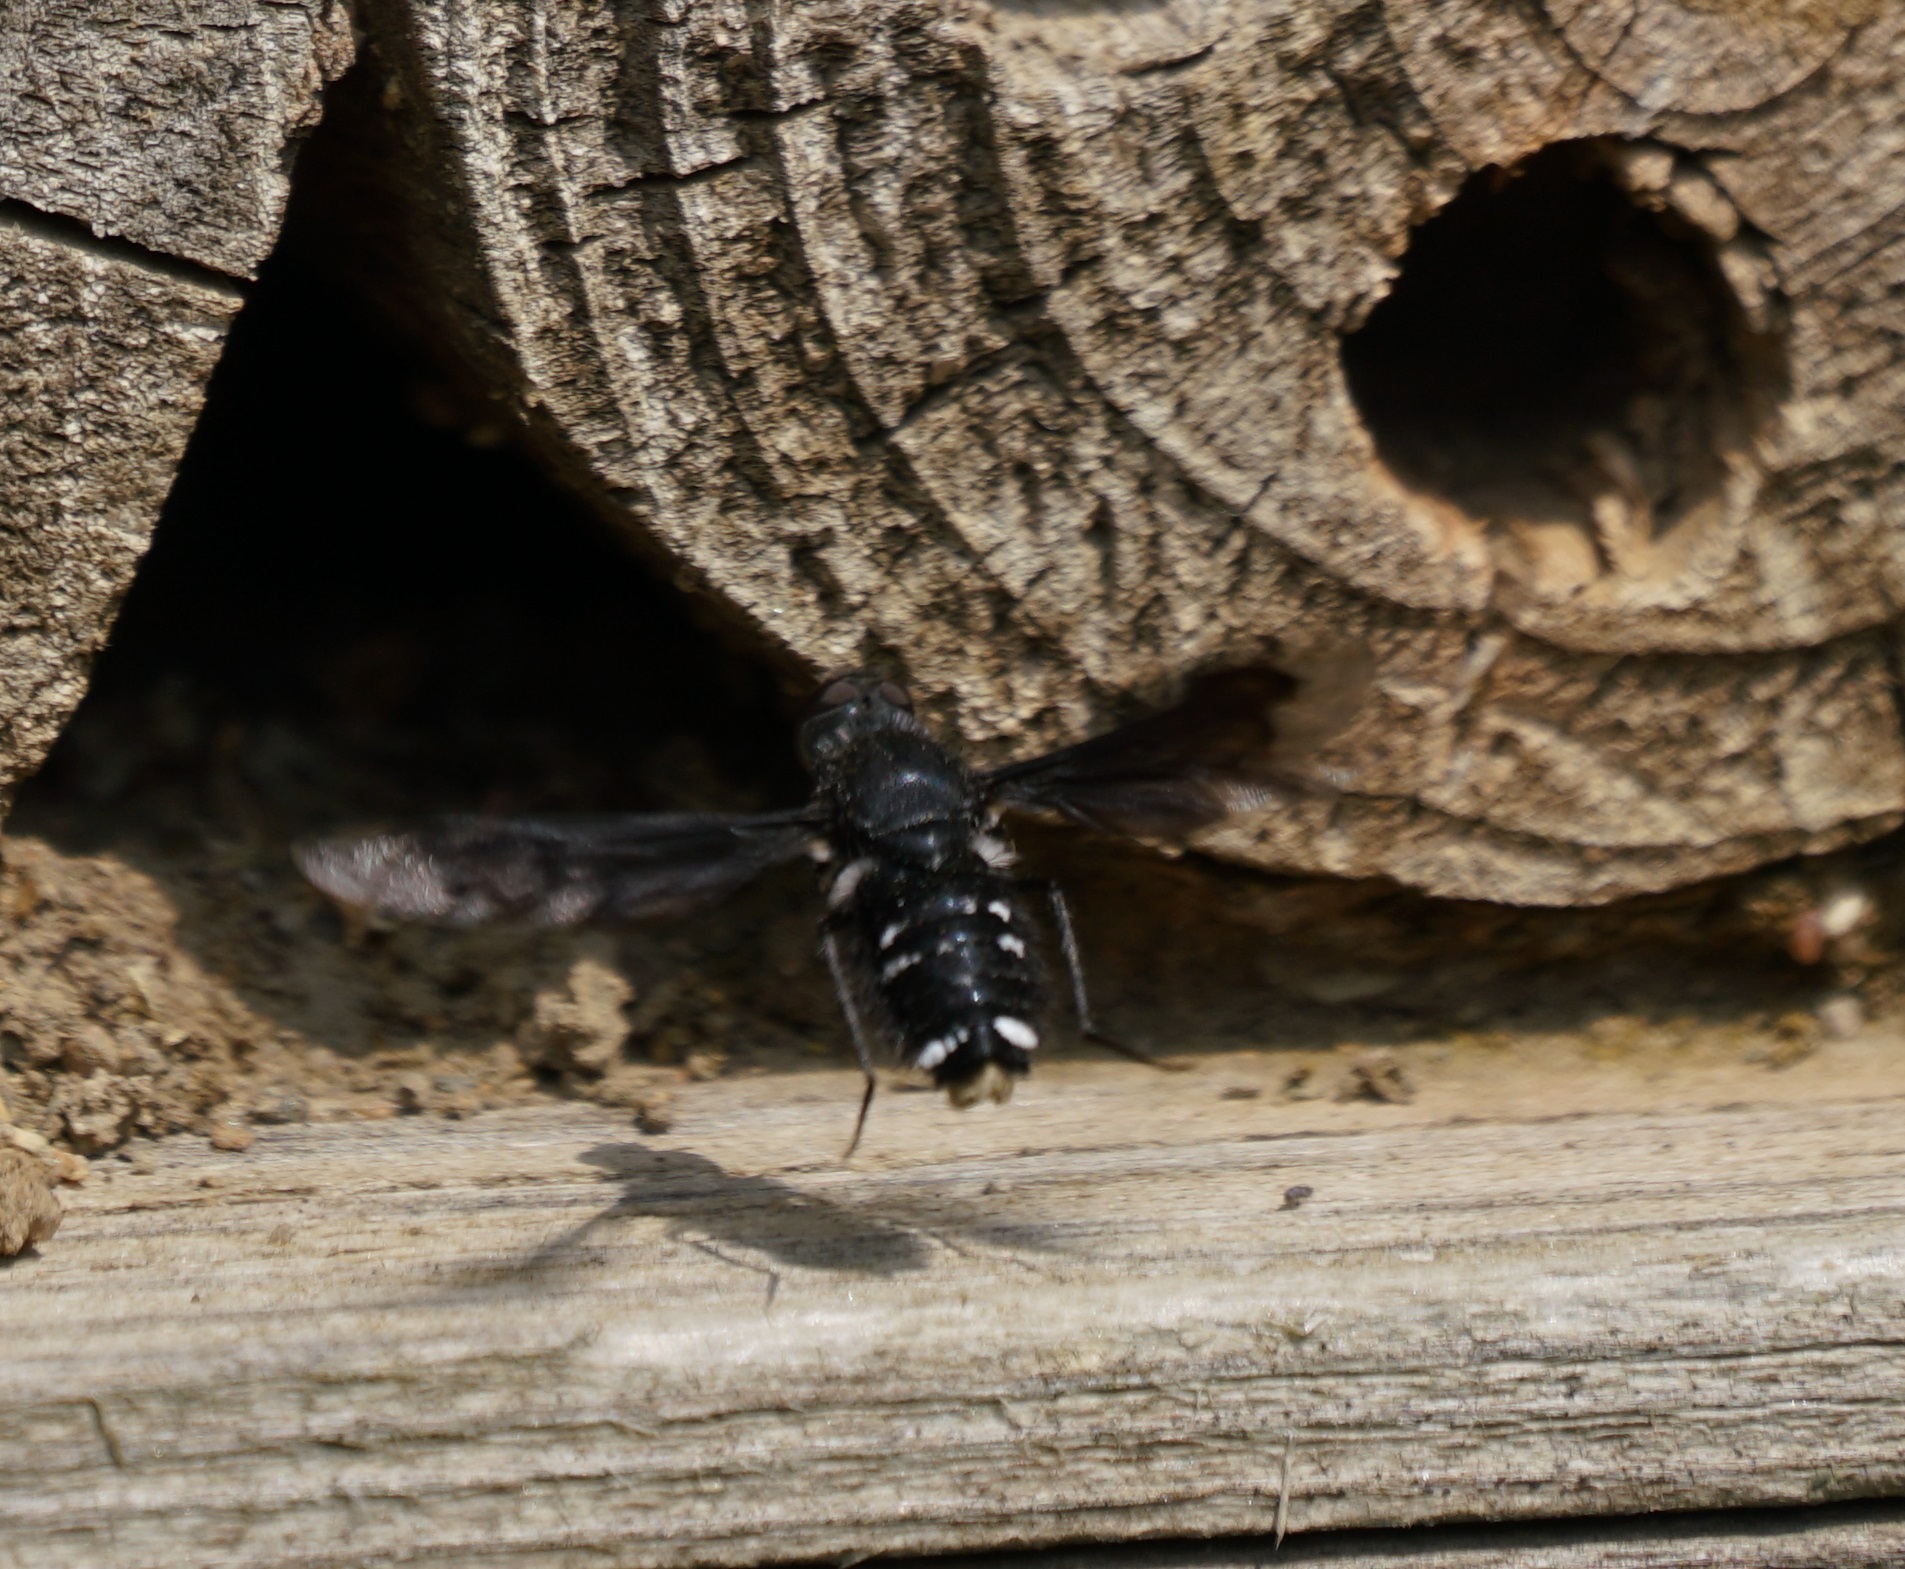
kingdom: Animalia
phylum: Arthropoda
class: Insecta
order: Diptera
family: Bombyliidae
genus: Anthrax
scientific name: Anthrax anthrax
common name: Anthracite bee-fly
